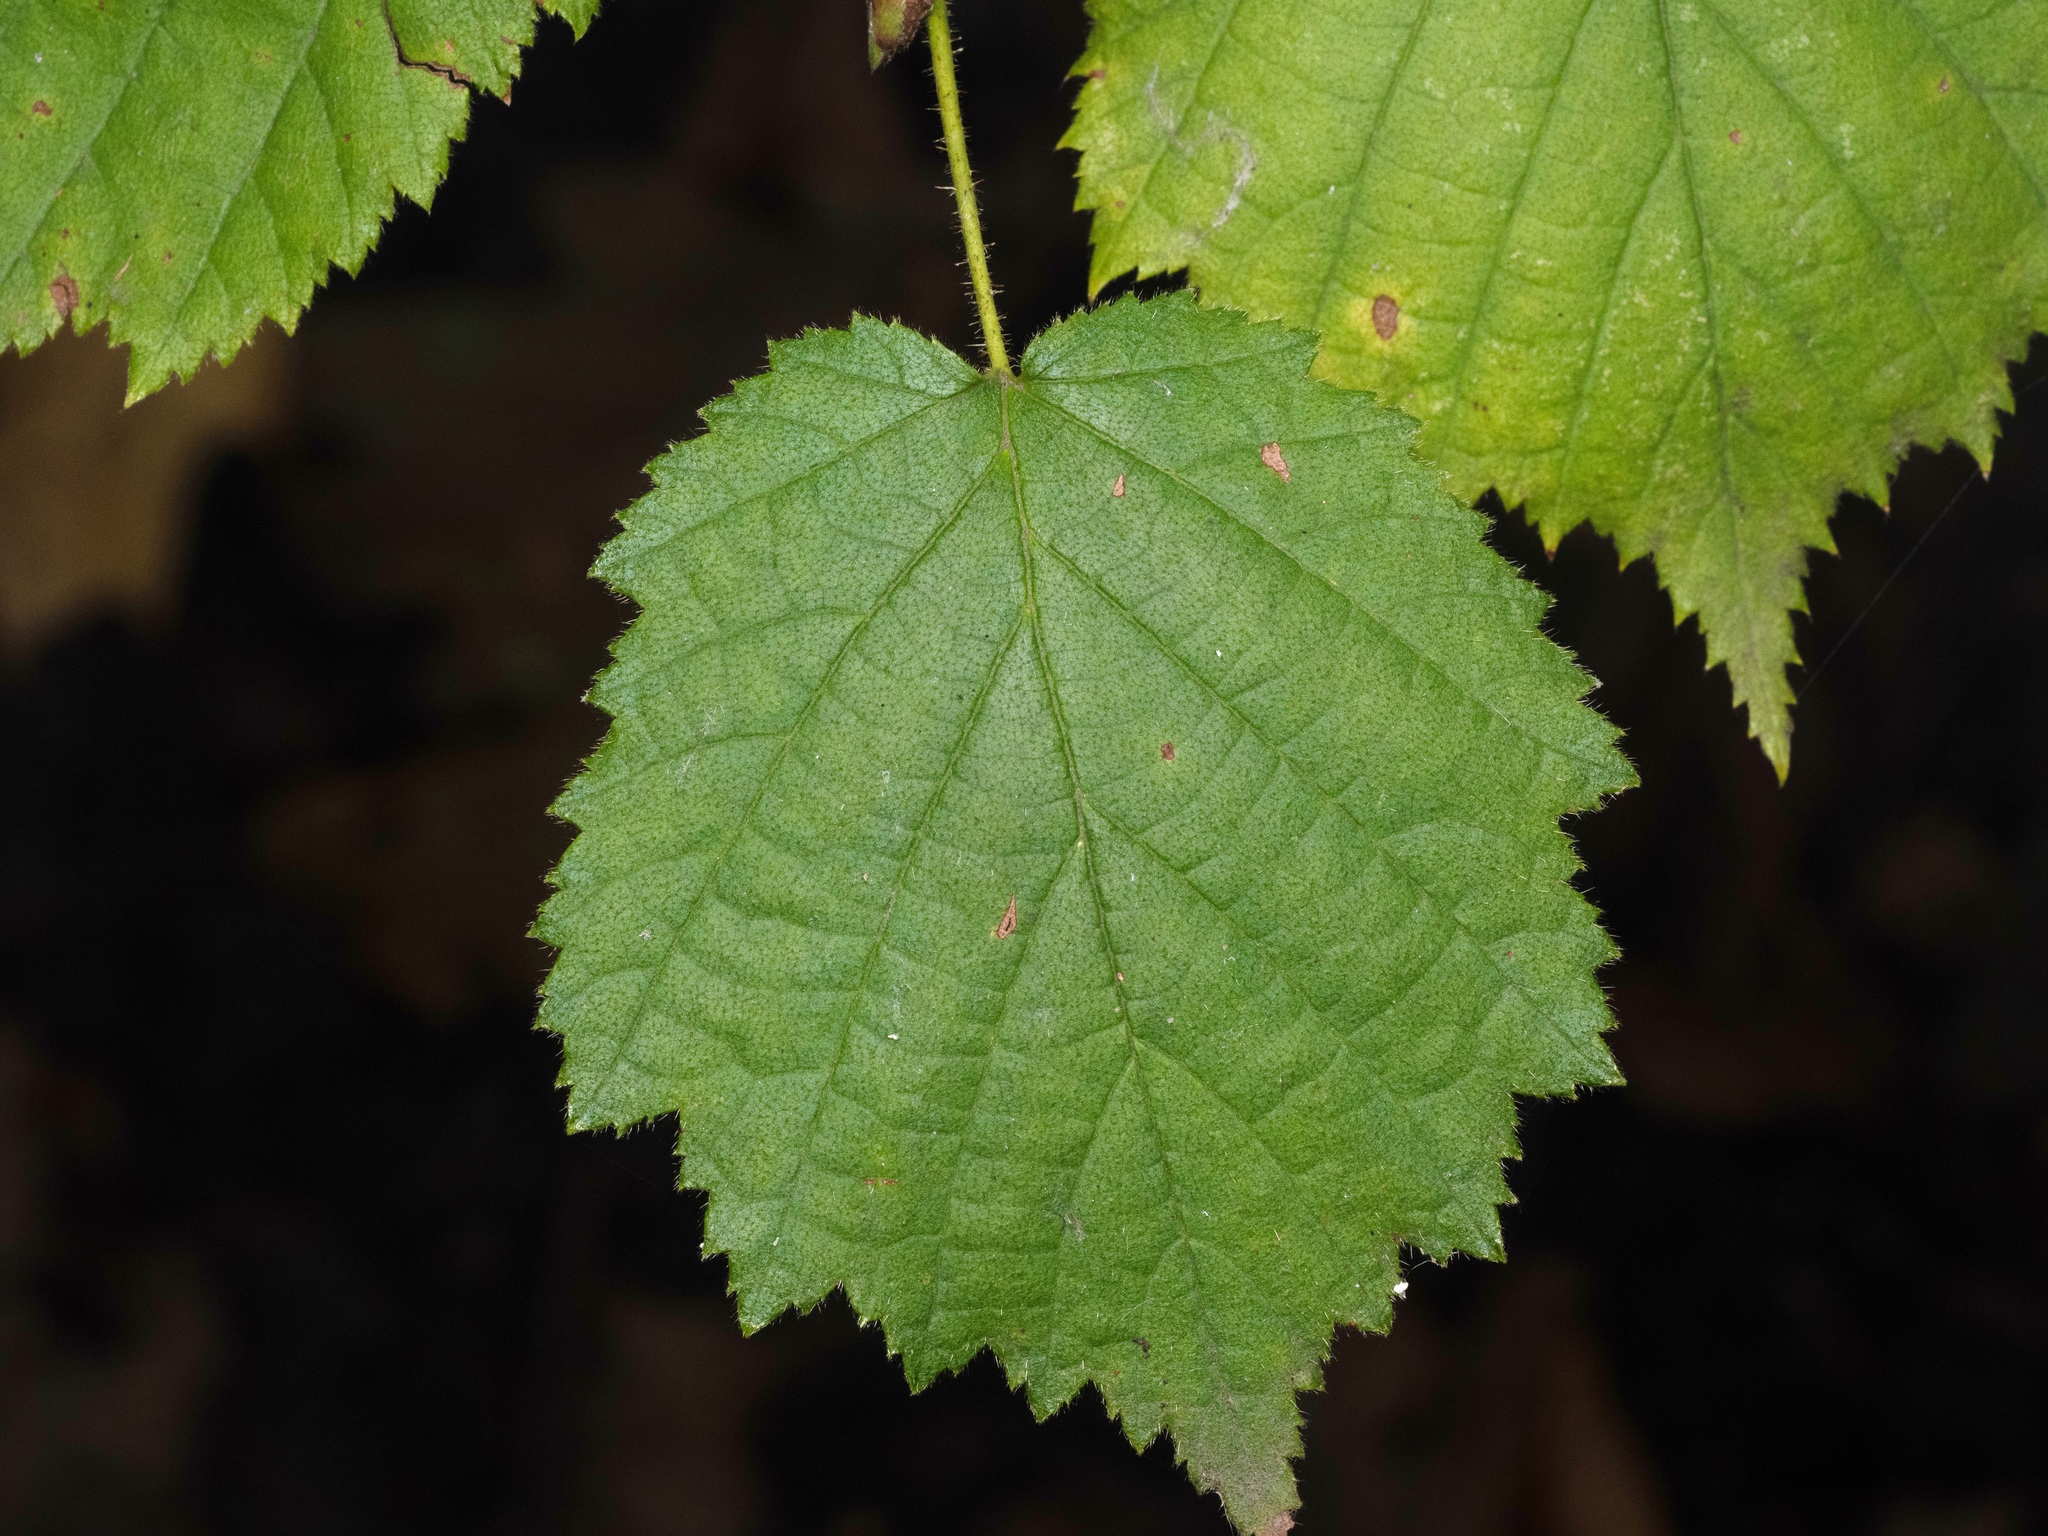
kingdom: Plantae
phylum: Tracheophyta
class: Magnoliopsida
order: Fagales
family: Betulaceae
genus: Corylus
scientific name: Corylus avellana
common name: European hazel
